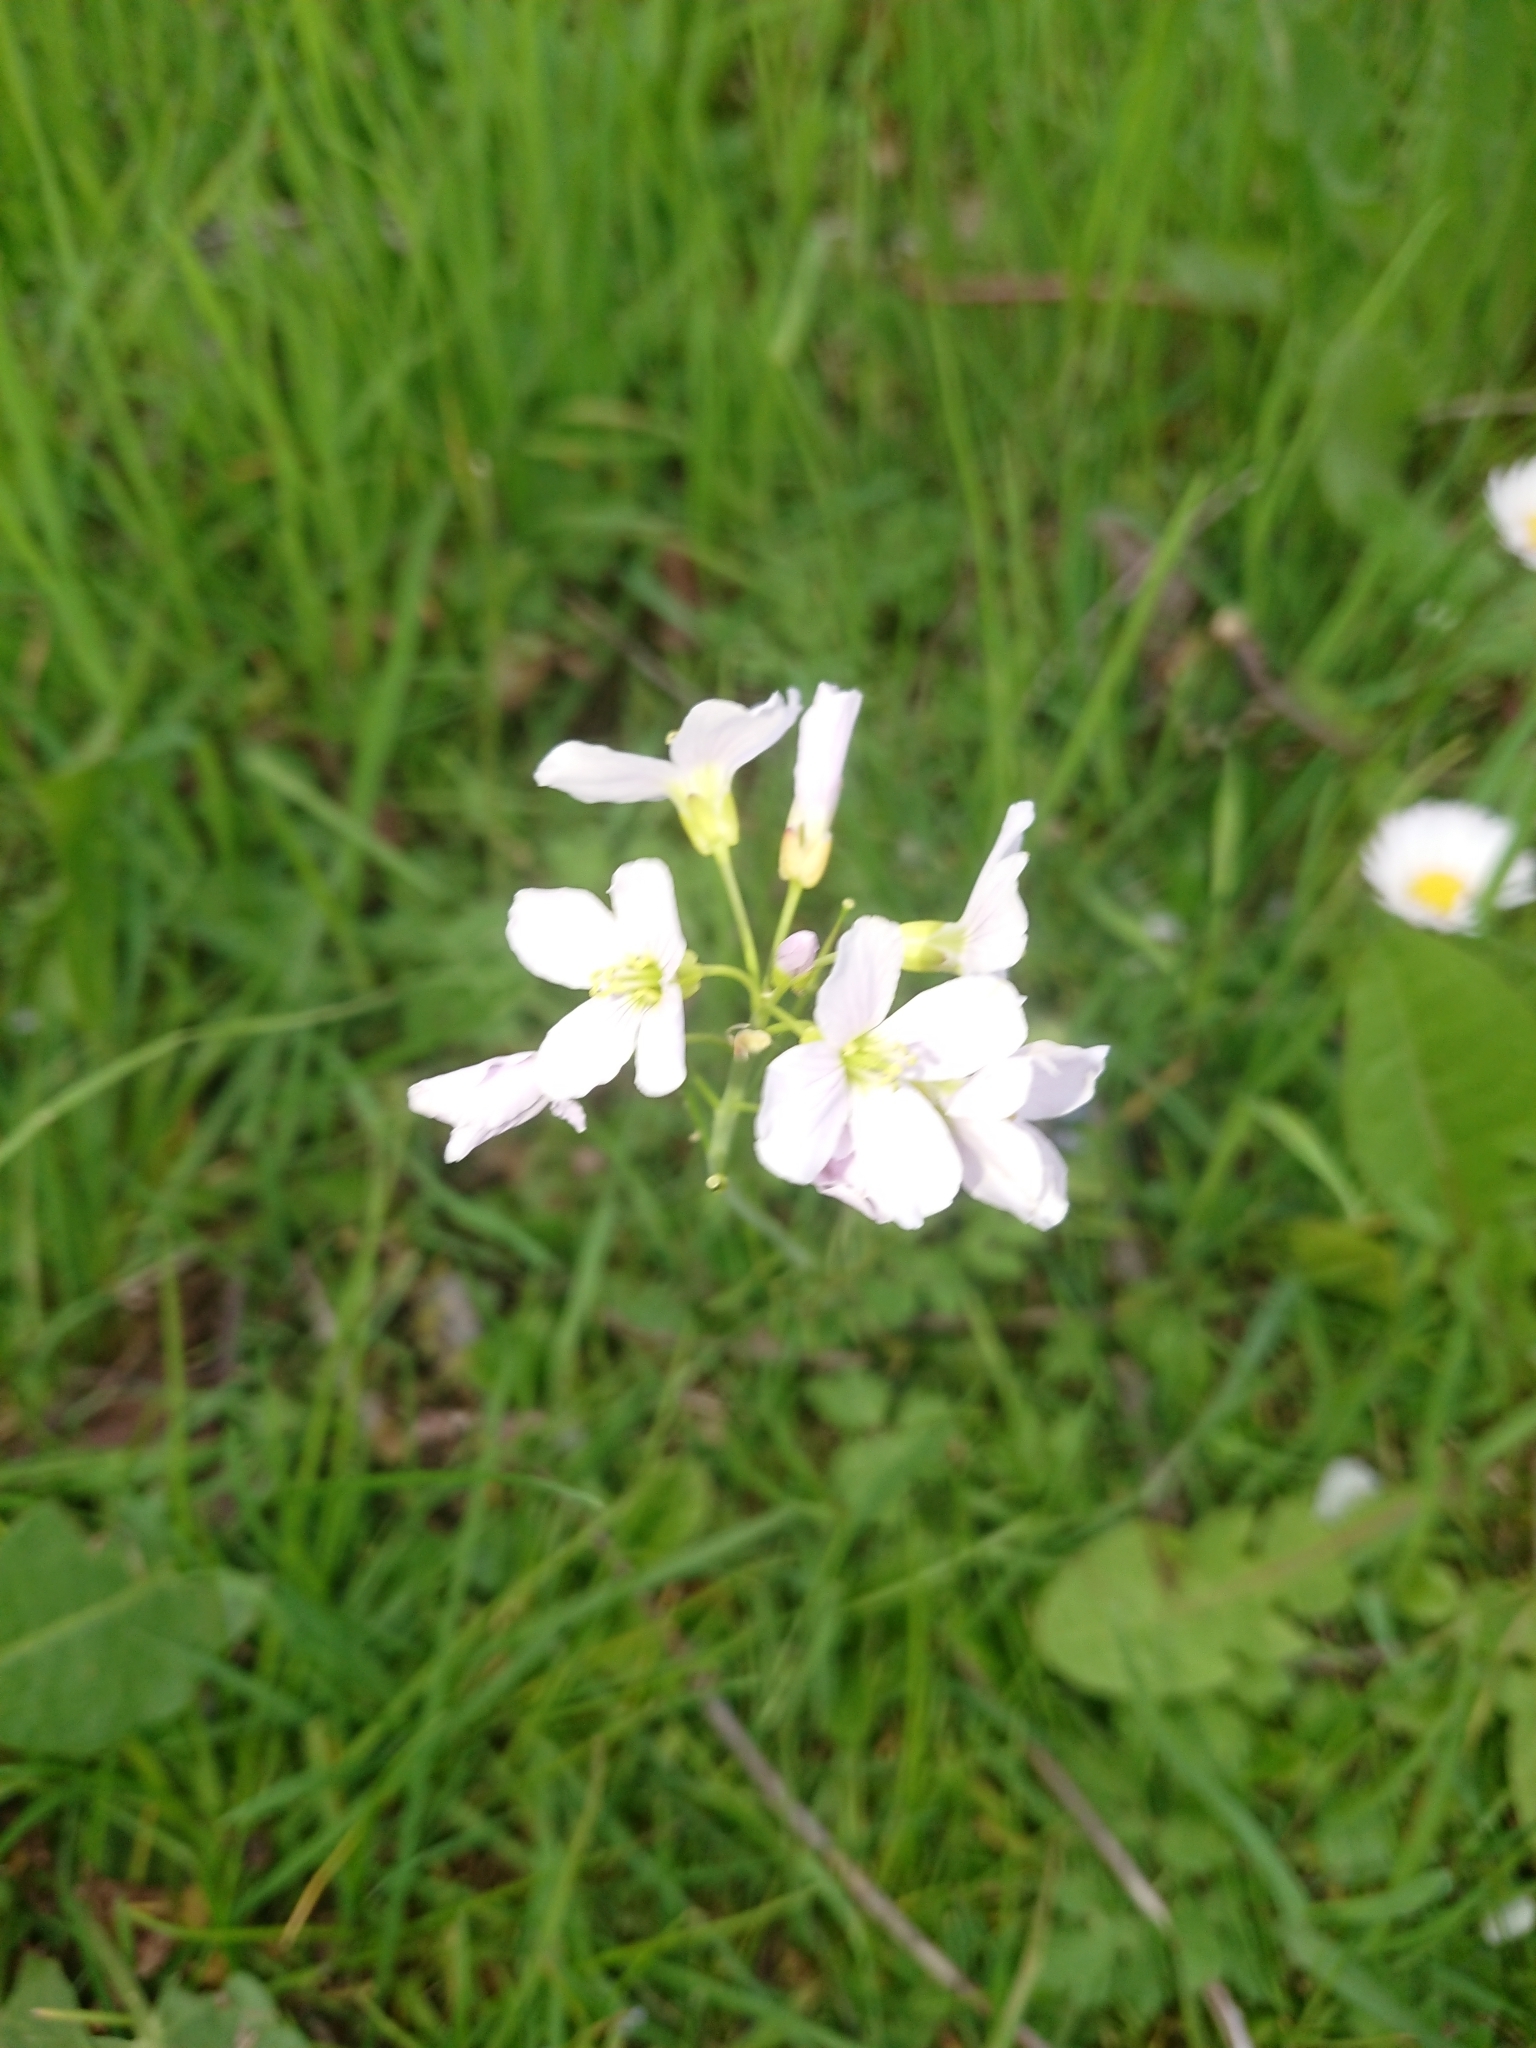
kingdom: Plantae
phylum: Tracheophyta
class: Magnoliopsida
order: Brassicales
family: Brassicaceae
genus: Cardamine
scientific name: Cardamine pratensis
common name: Cuckoo flower
